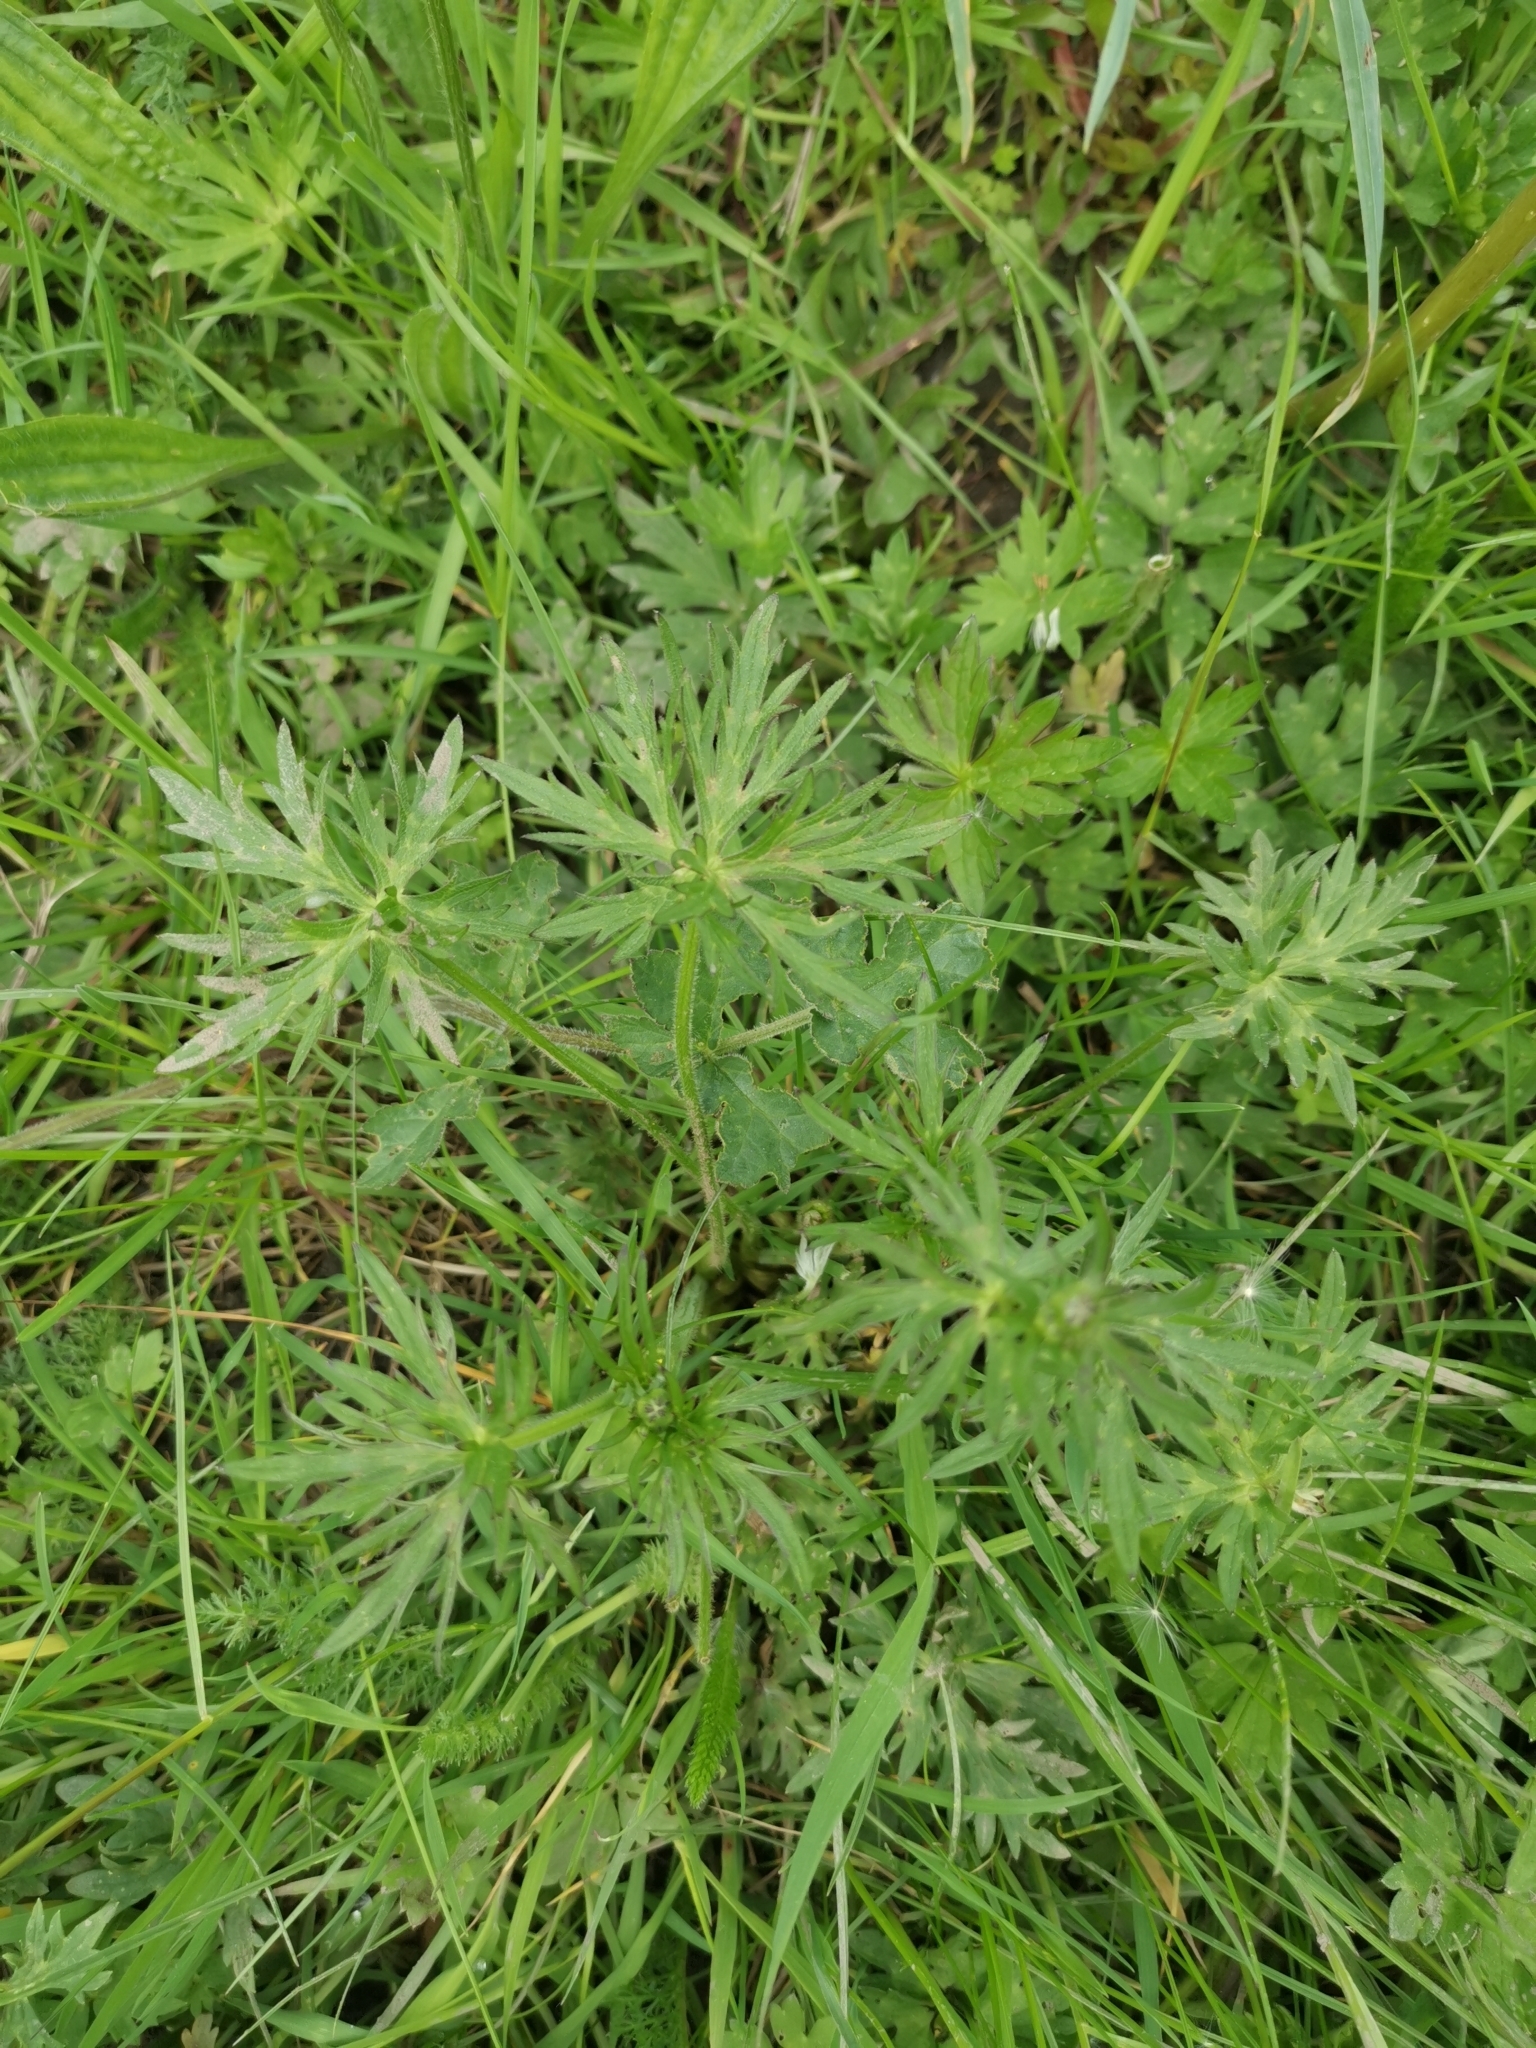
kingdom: Plantae
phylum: Tracheophyta
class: Magnoliopsida
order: Ranunculales
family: Ranunculaceae
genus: Ranunculus
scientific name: Ranunculus acris
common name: Meadow buttercup
